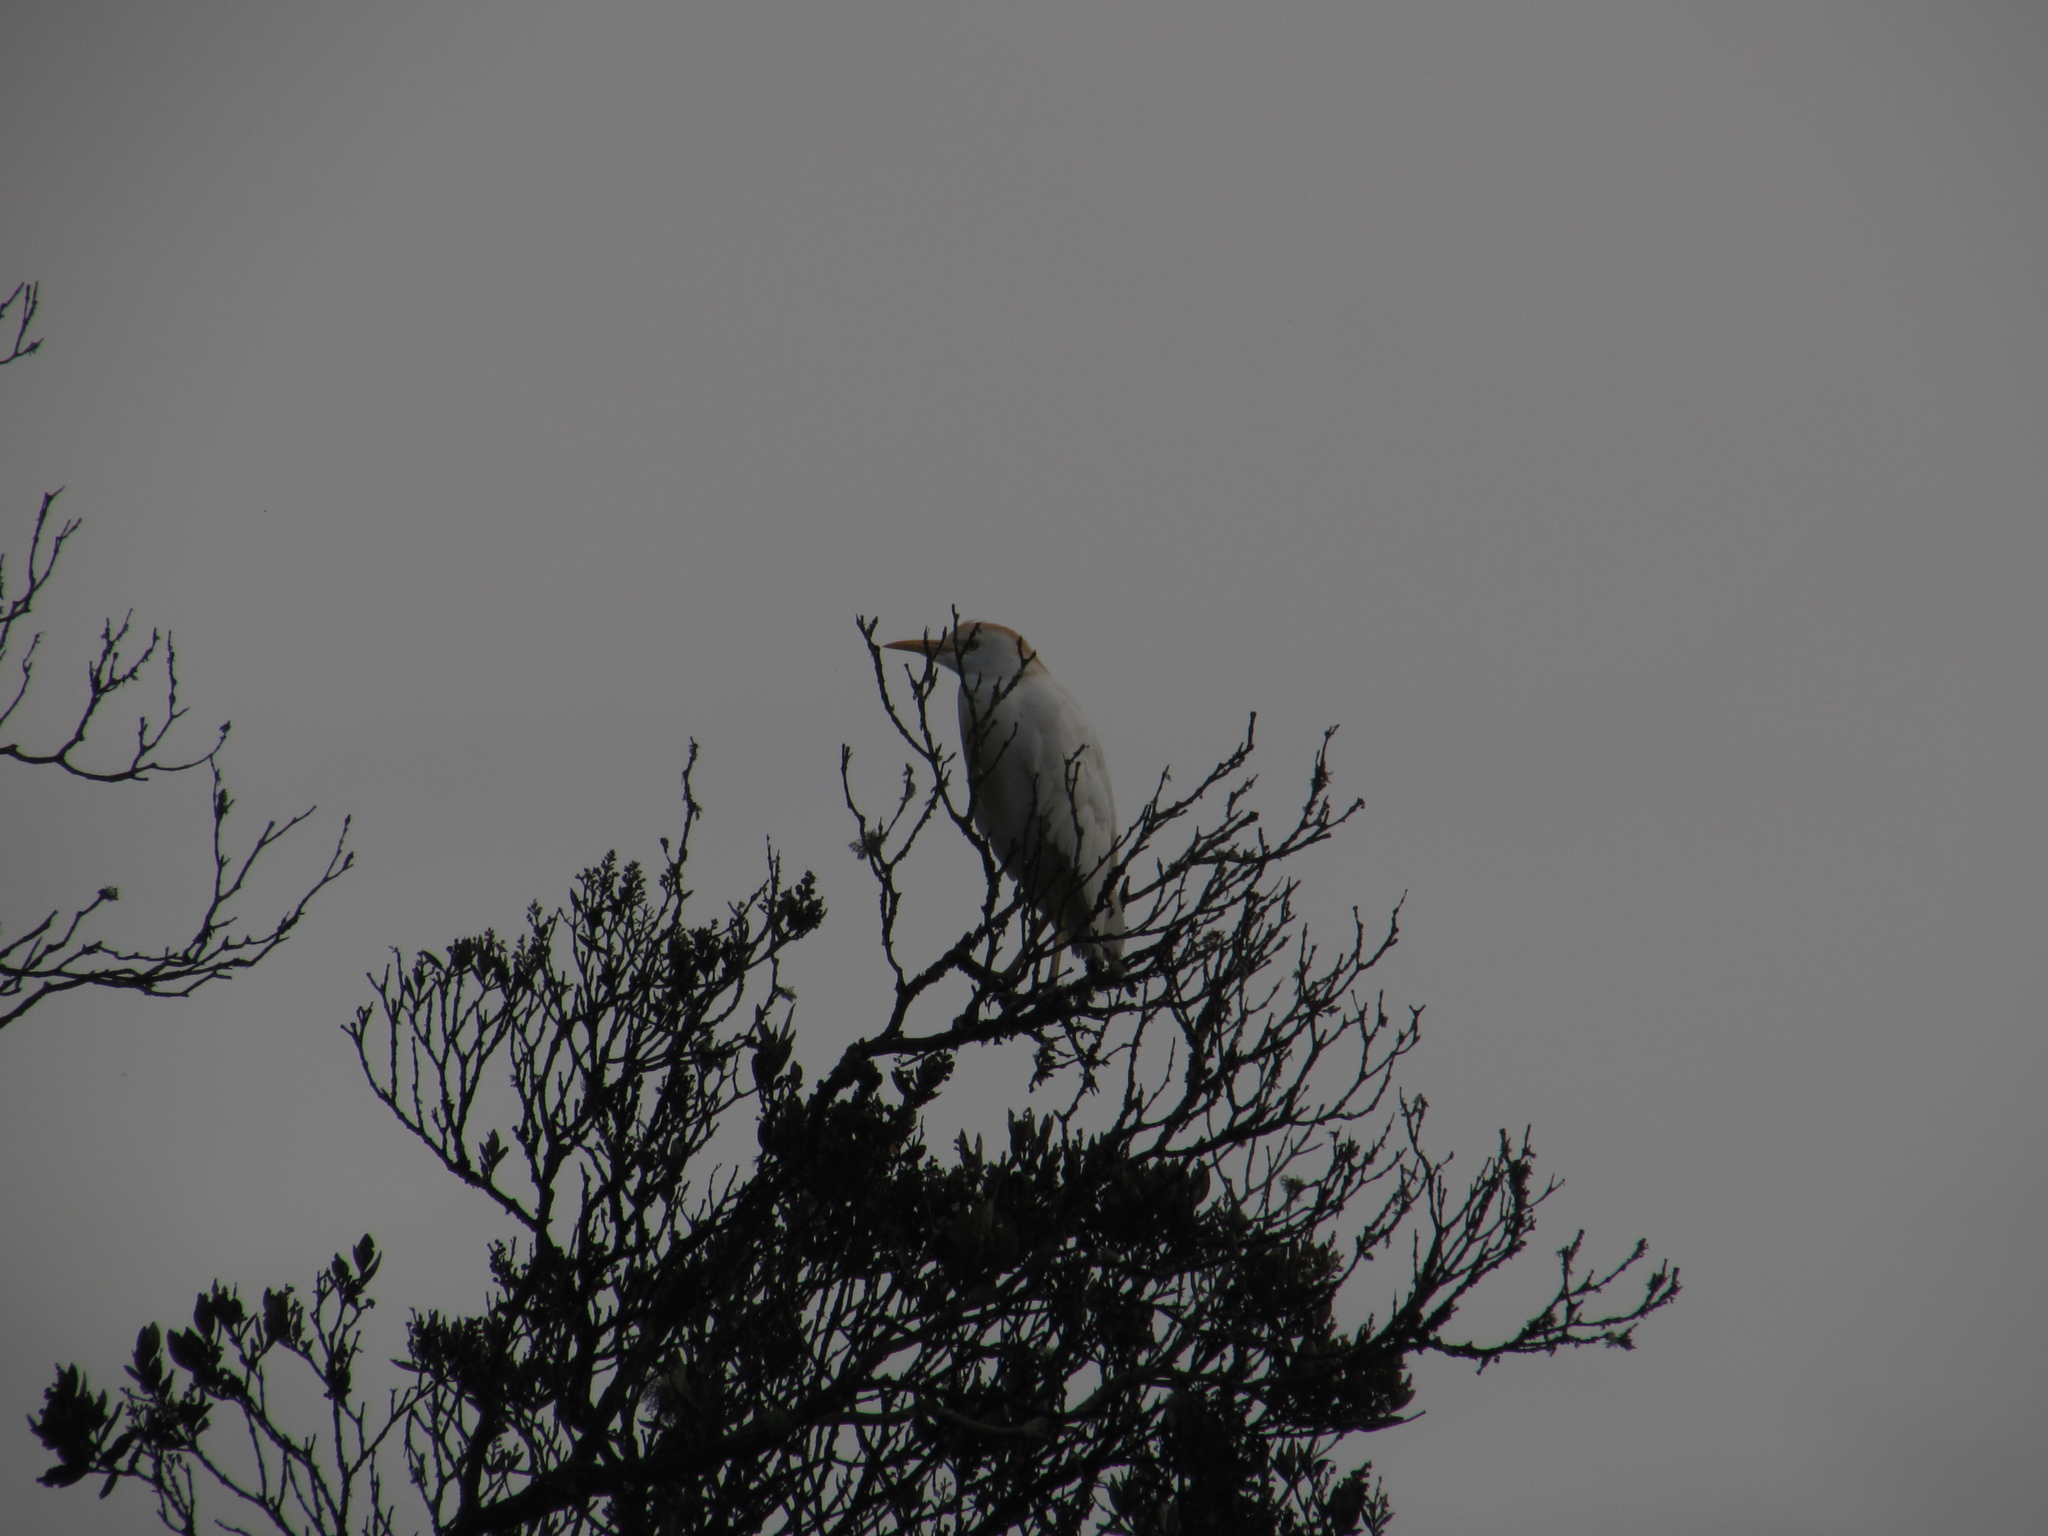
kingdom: Animalia
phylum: Chordata
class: Aves
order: Pelecaniformes
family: Ardeidae
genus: Bubulcus
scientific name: Bubulcus ibis
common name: Cattle egret
